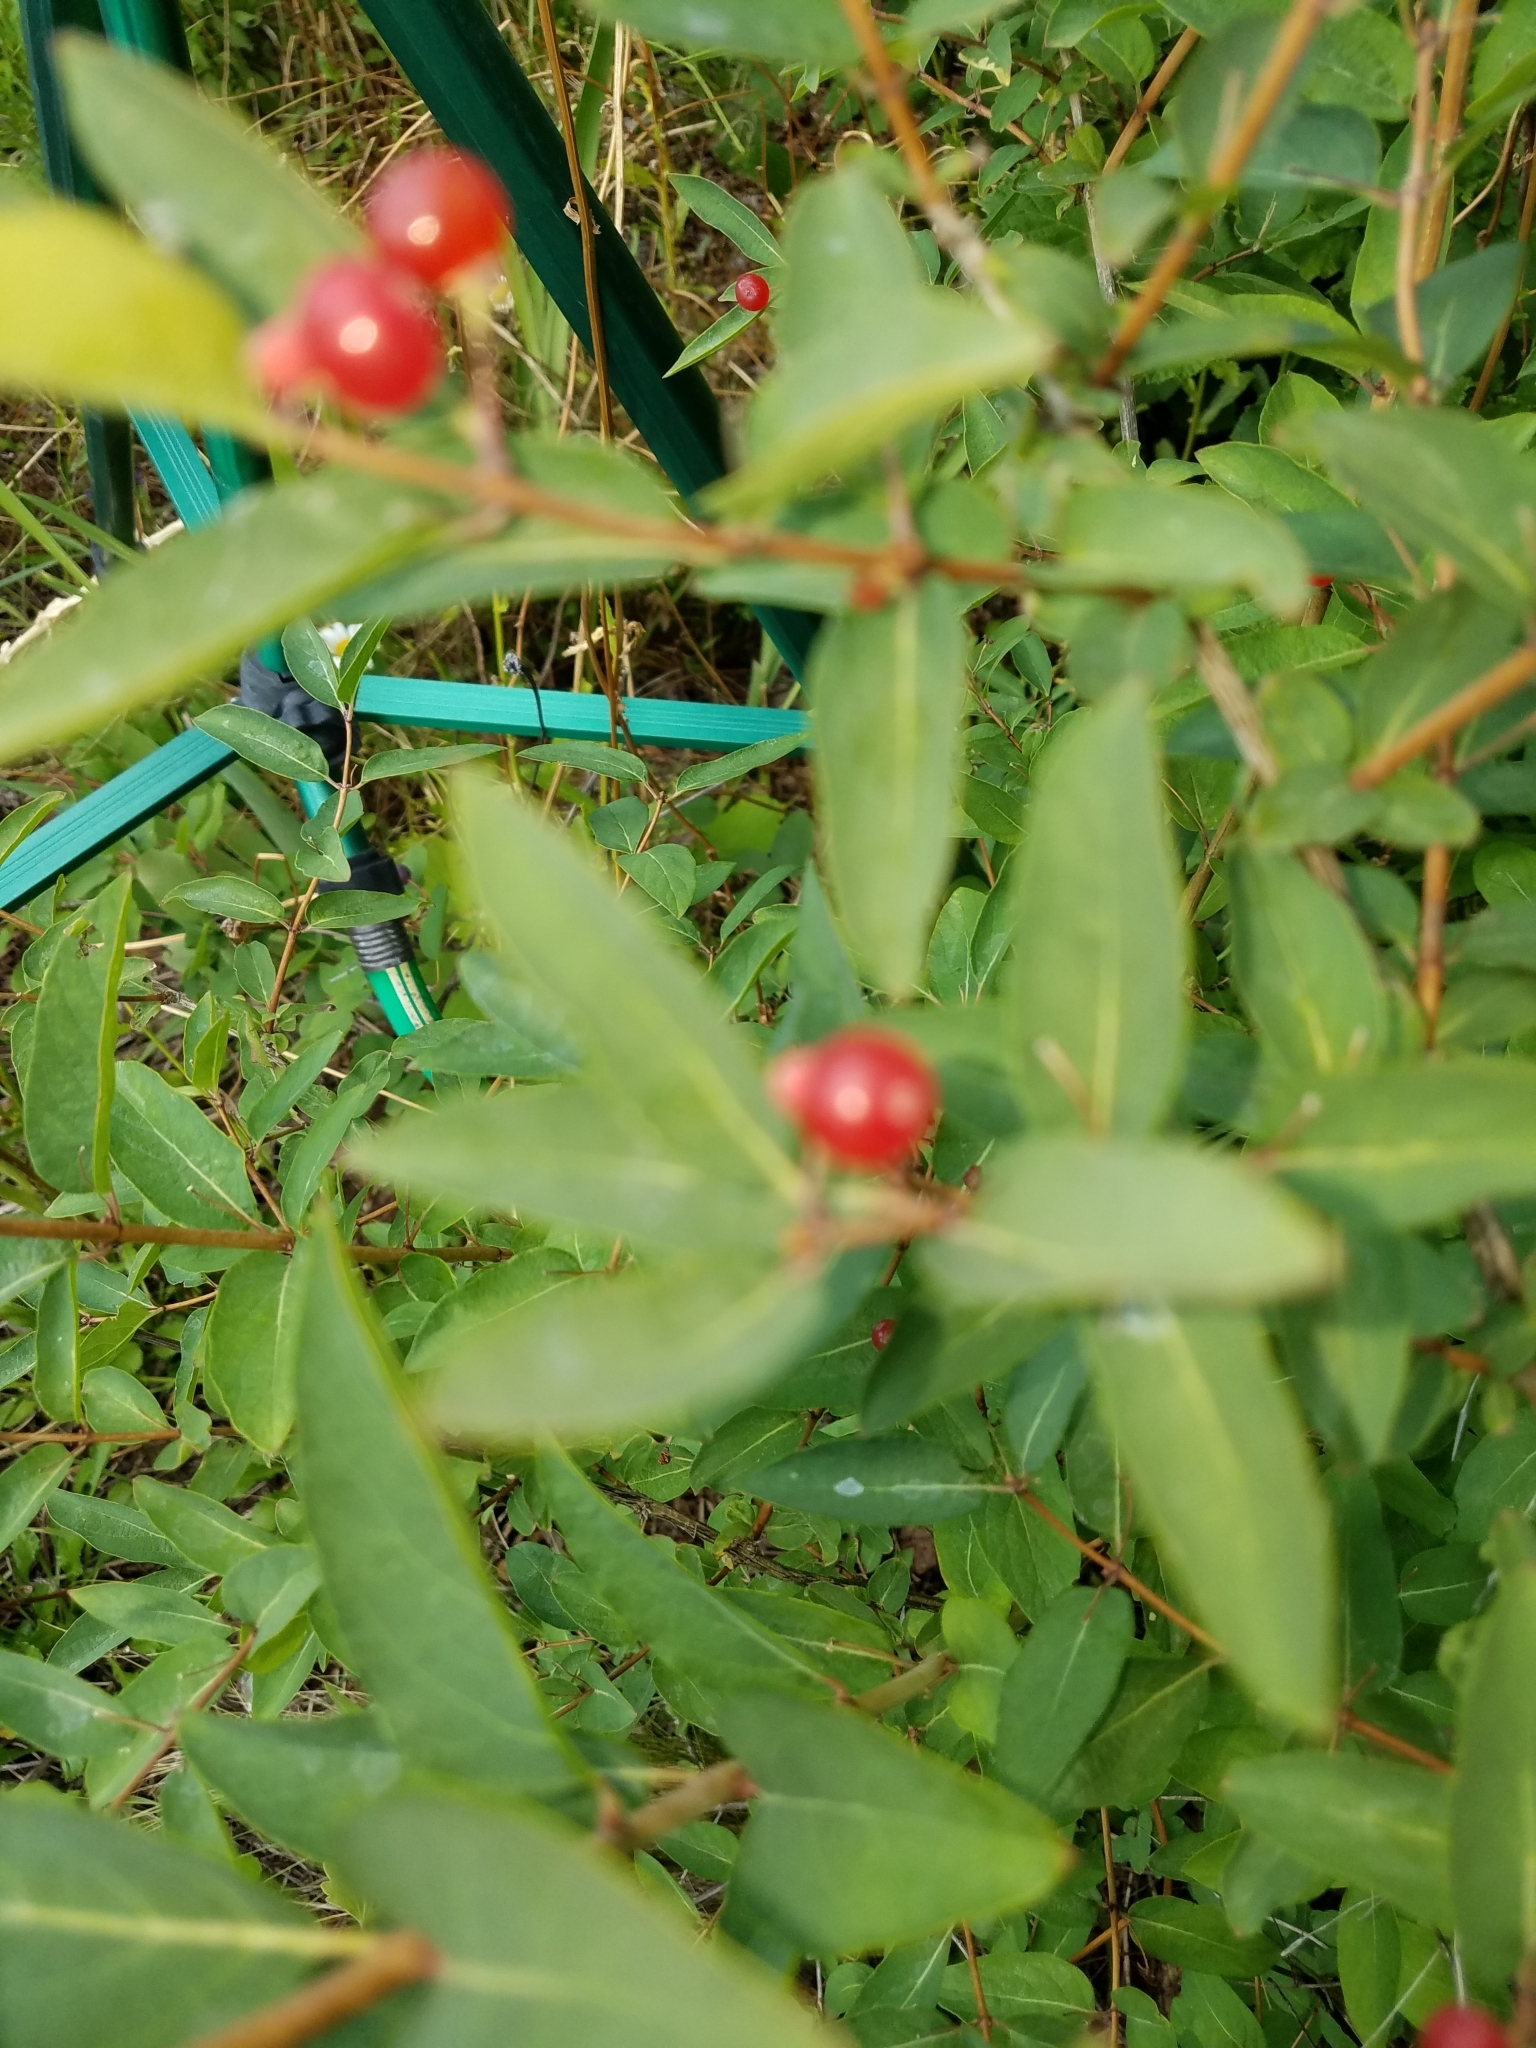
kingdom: Plantae
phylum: Tracheophyta
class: Magnoliopsida
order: Dipsacales
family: Caprifoliaceae
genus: Lonicera
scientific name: Lonicera conjugialis
